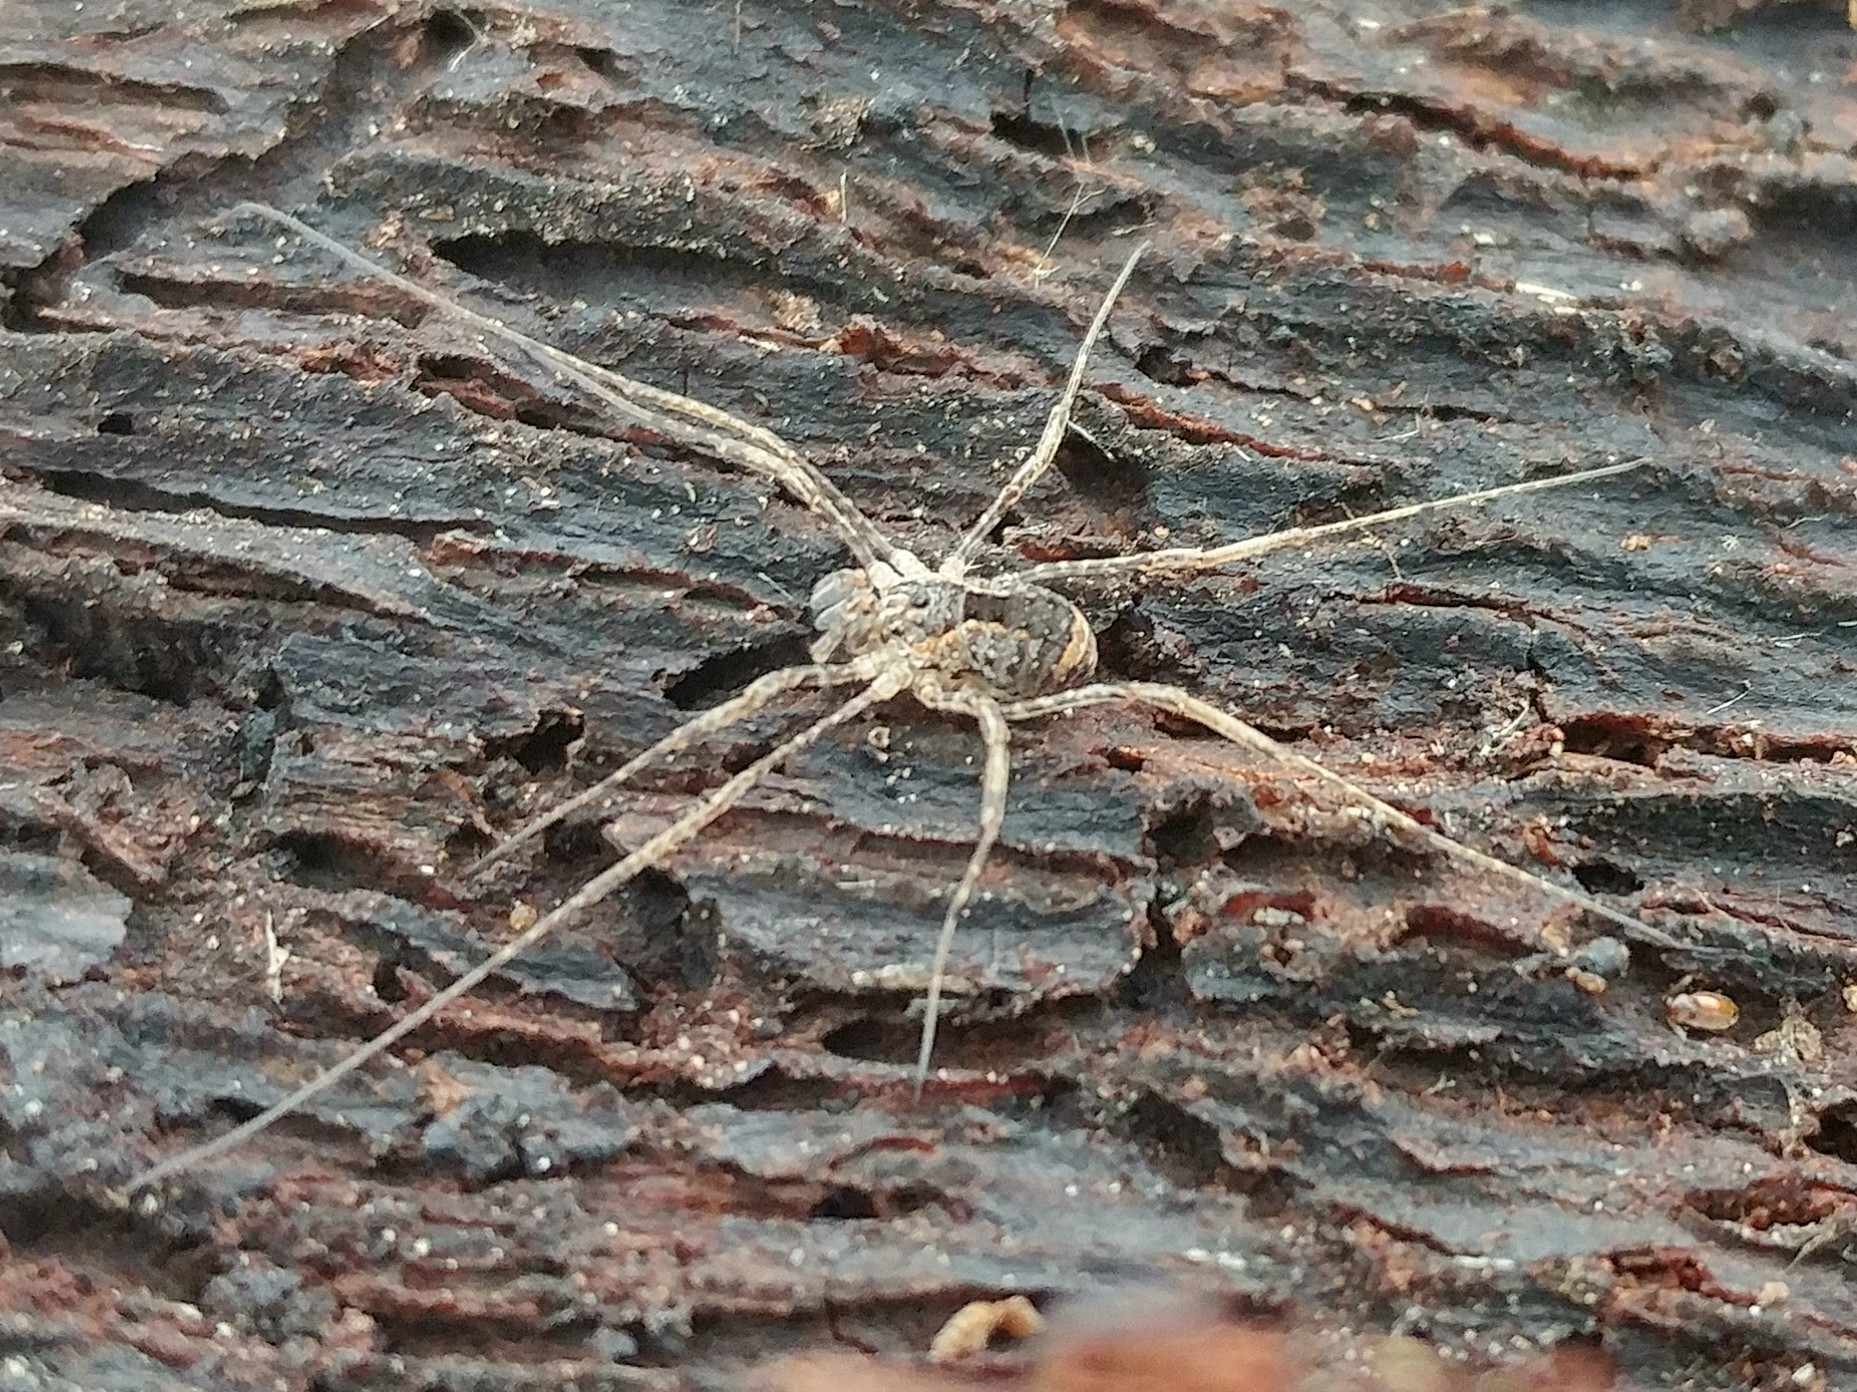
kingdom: Animalia
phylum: Arthropoda
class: Arachnida
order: Opiliones
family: Protolophidae
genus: Protolophus
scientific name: Protolophus singularis
